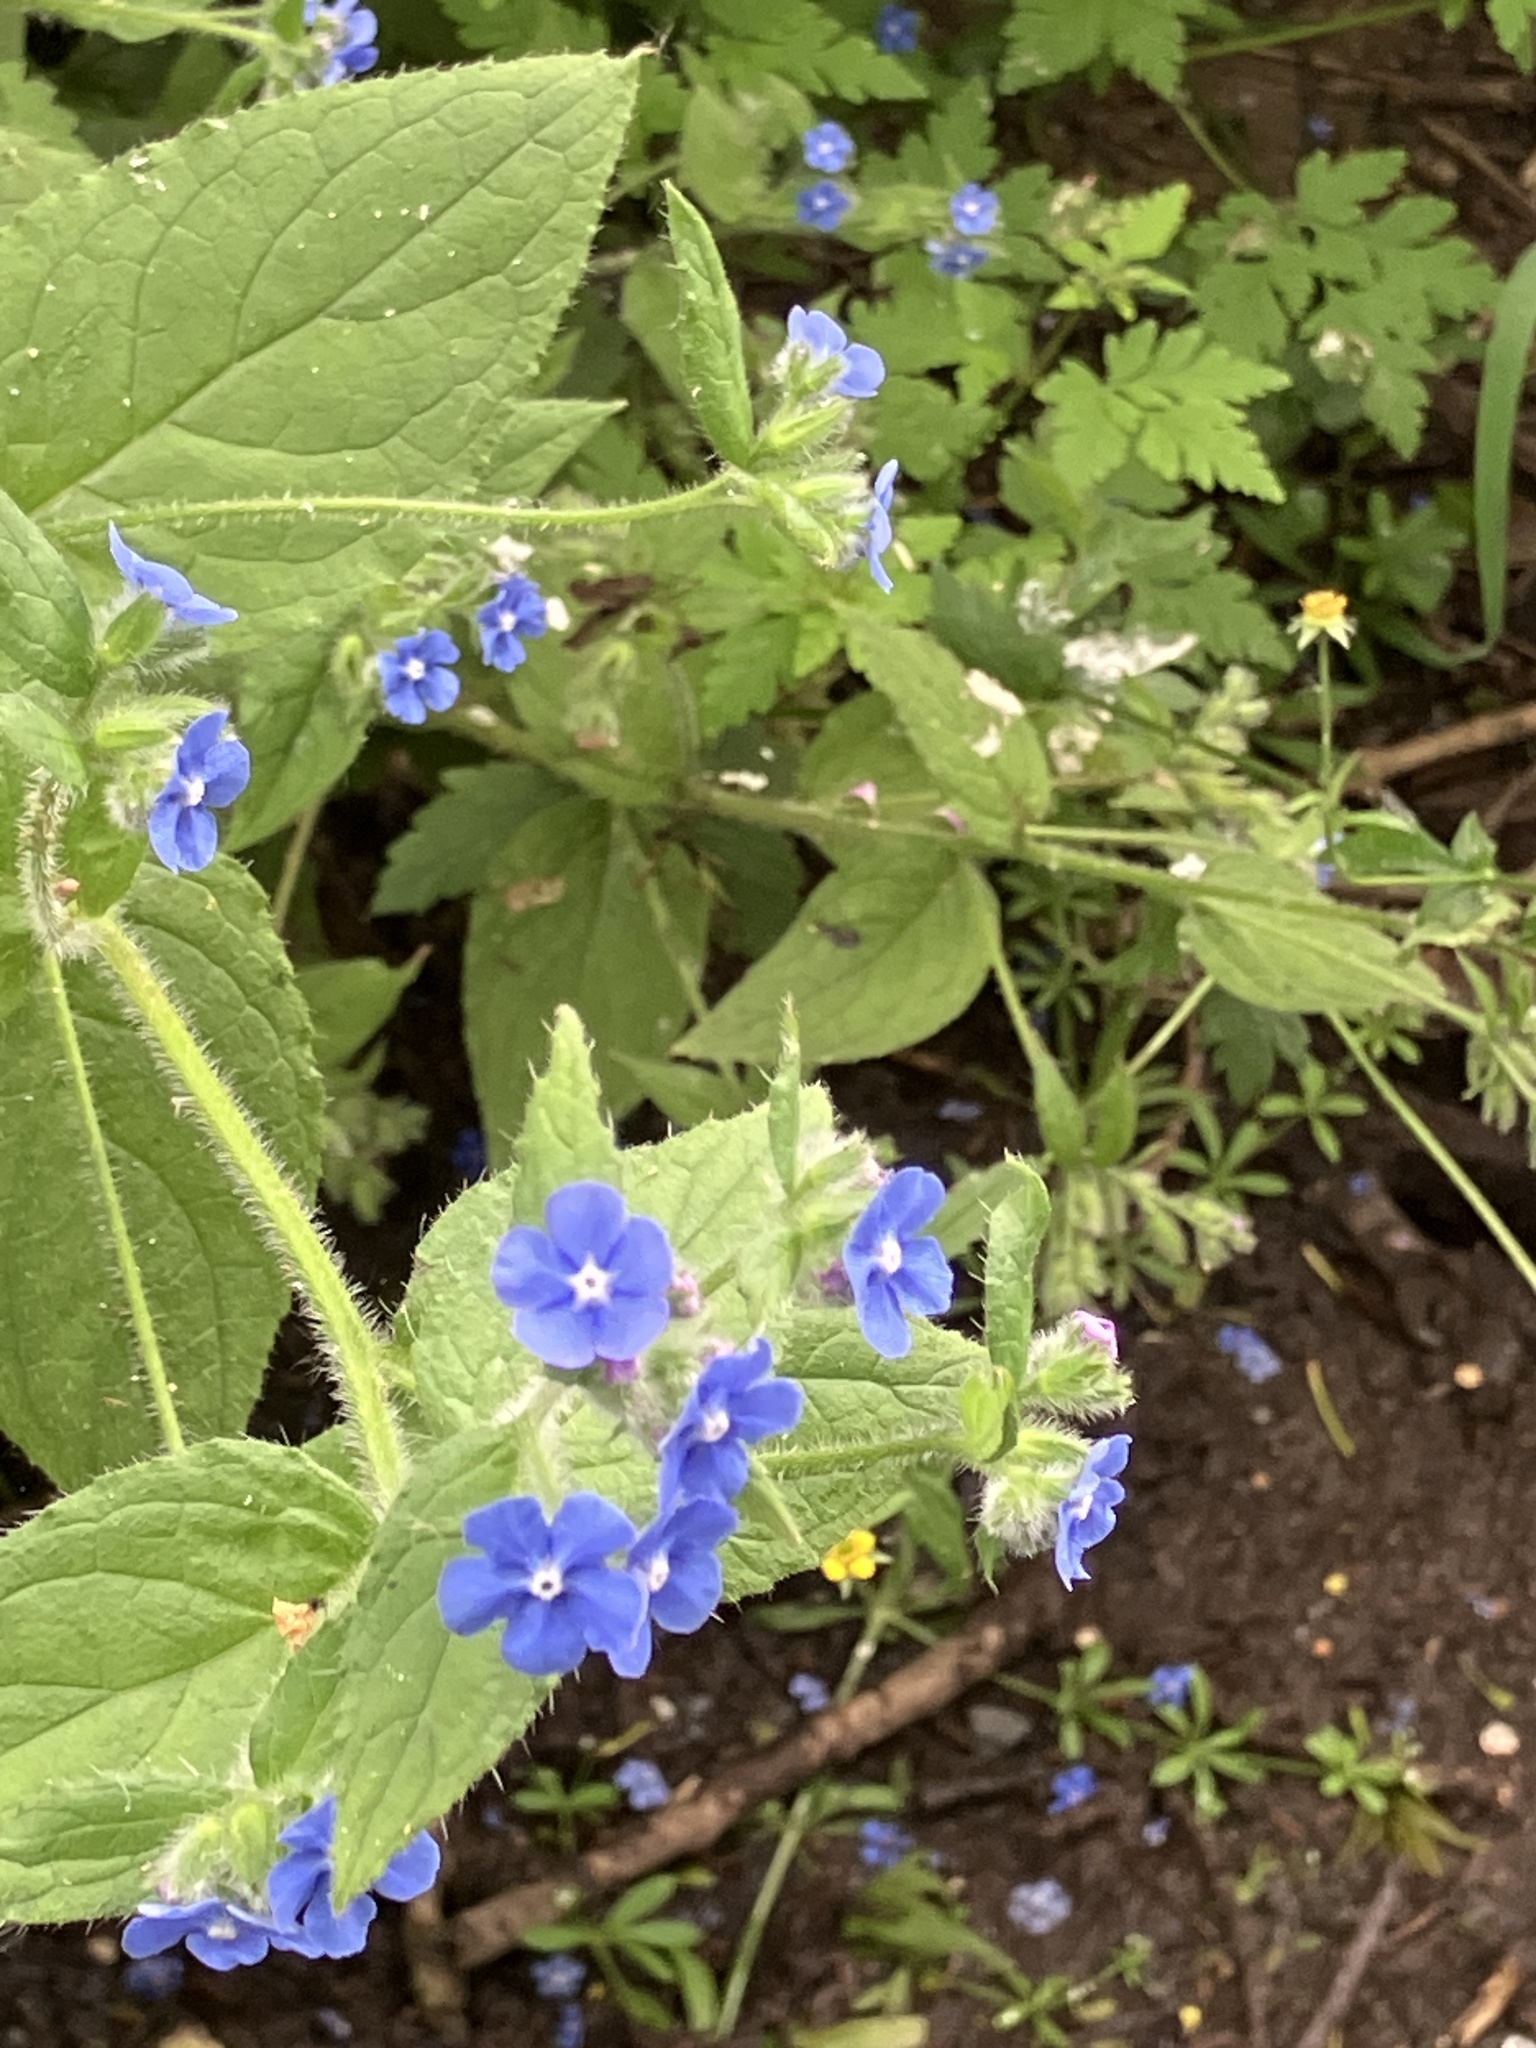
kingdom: Plantae
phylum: Tracheophyta
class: Magnoliopsida
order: Boraginales
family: Boraginaceae
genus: Pentaglottis
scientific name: Pentaglottis sempervirens
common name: Green alkanet
